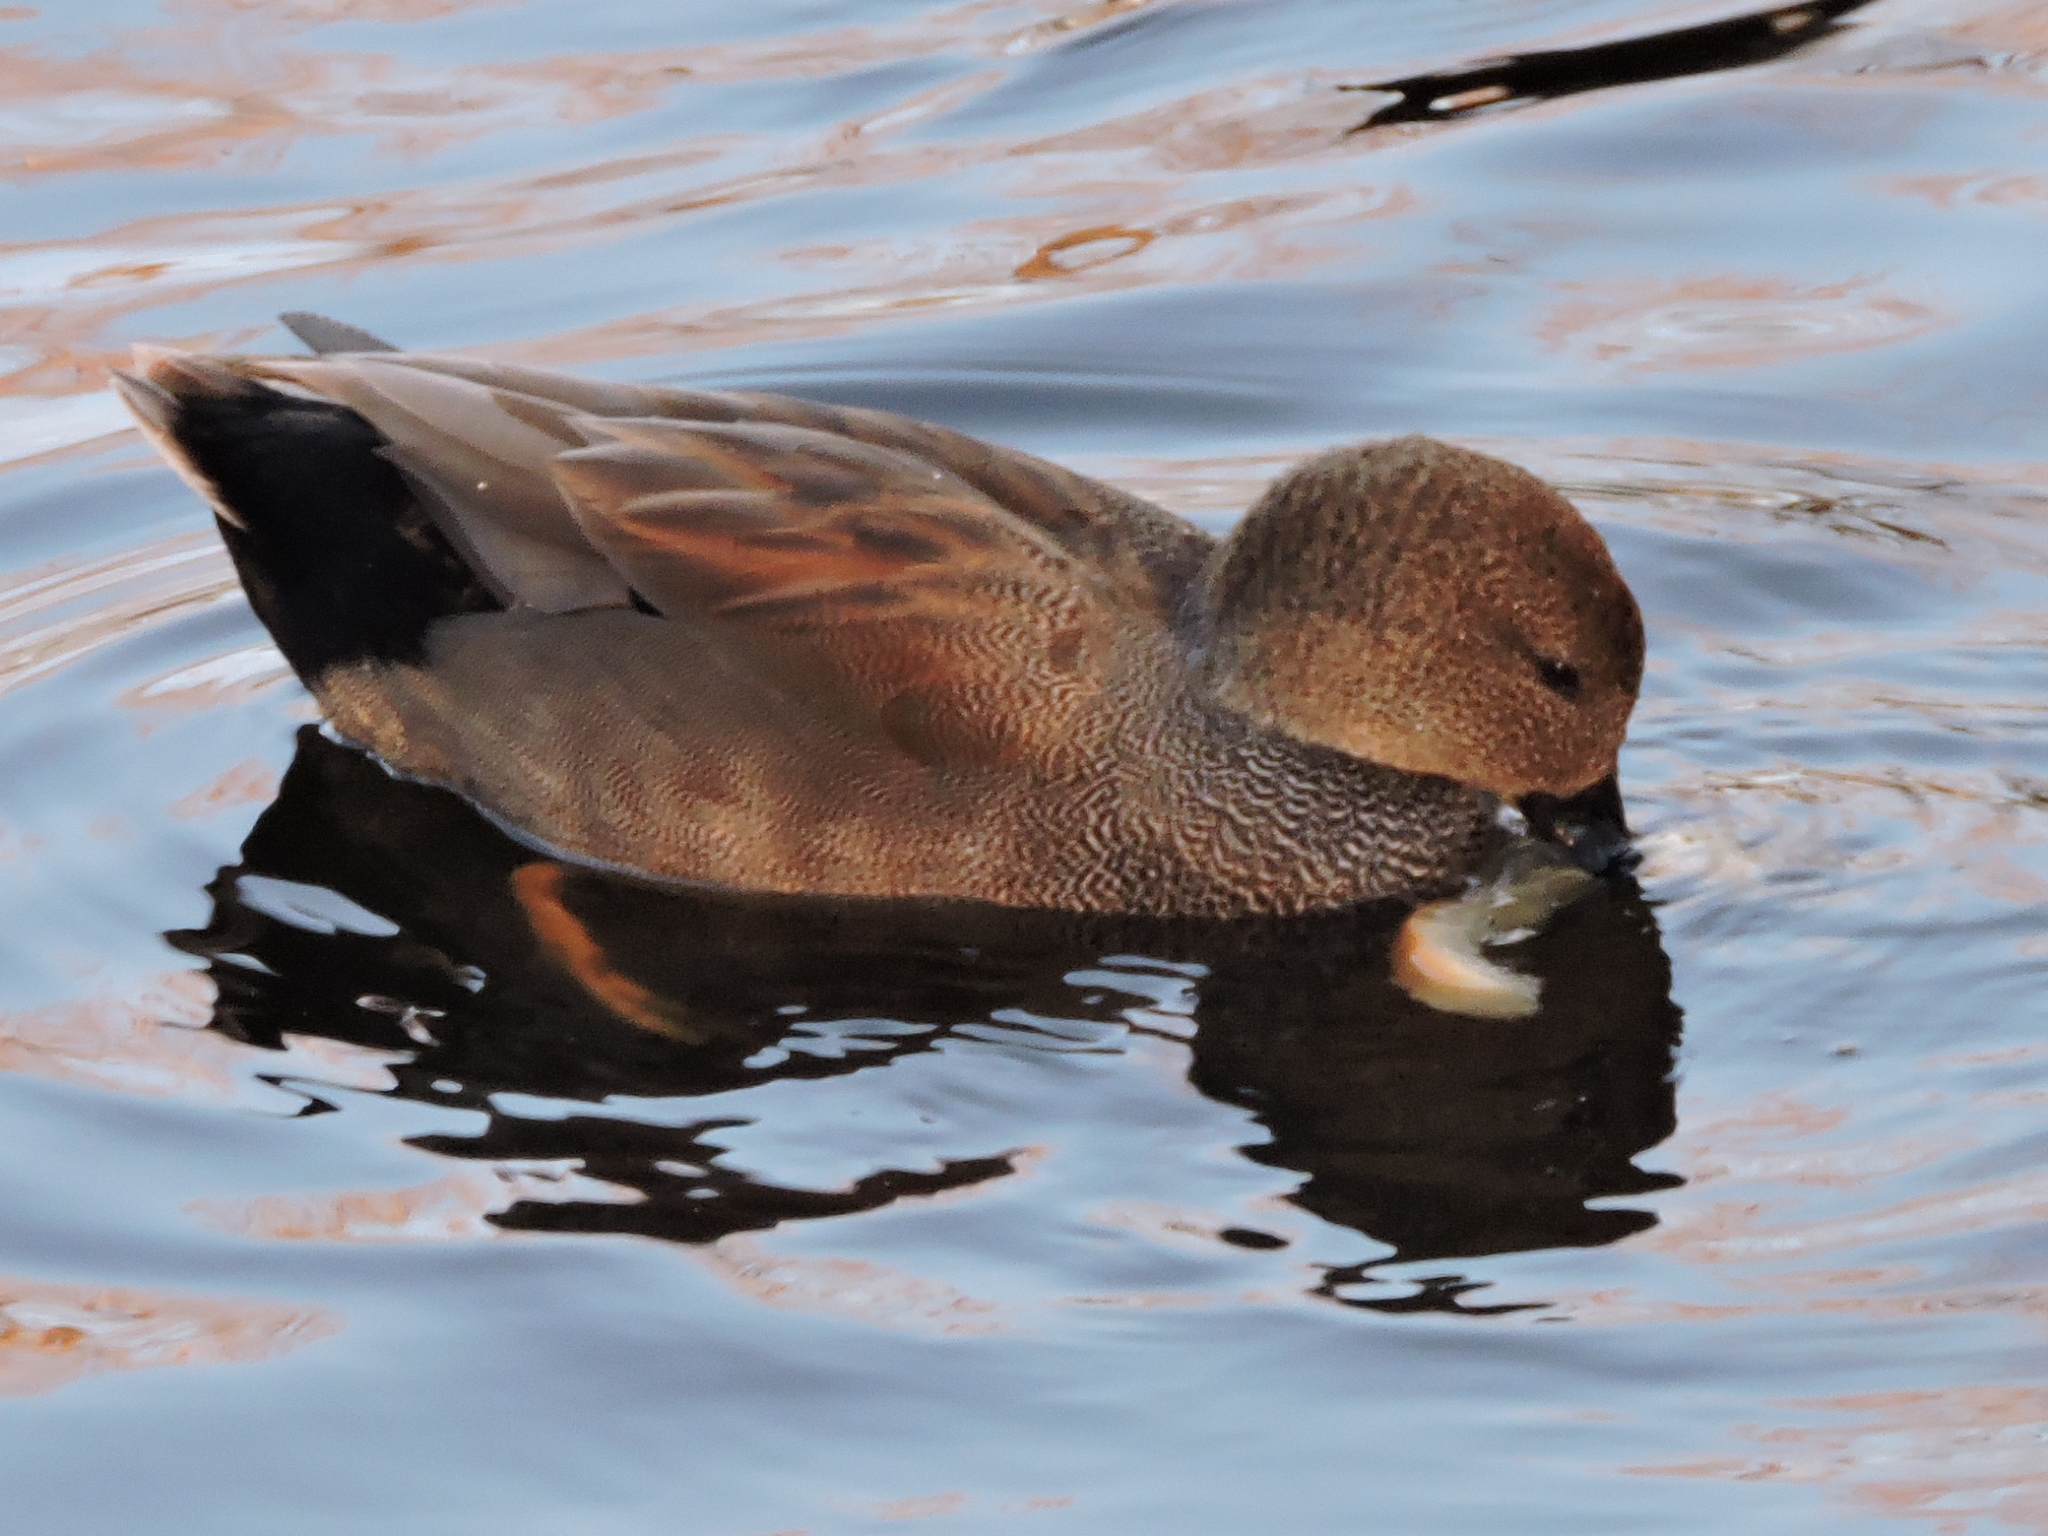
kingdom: Animalia
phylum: Chordata
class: Aves
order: Anseriformes
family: Anatidae
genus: Mareca
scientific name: Mareca strepera
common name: Gadwall
